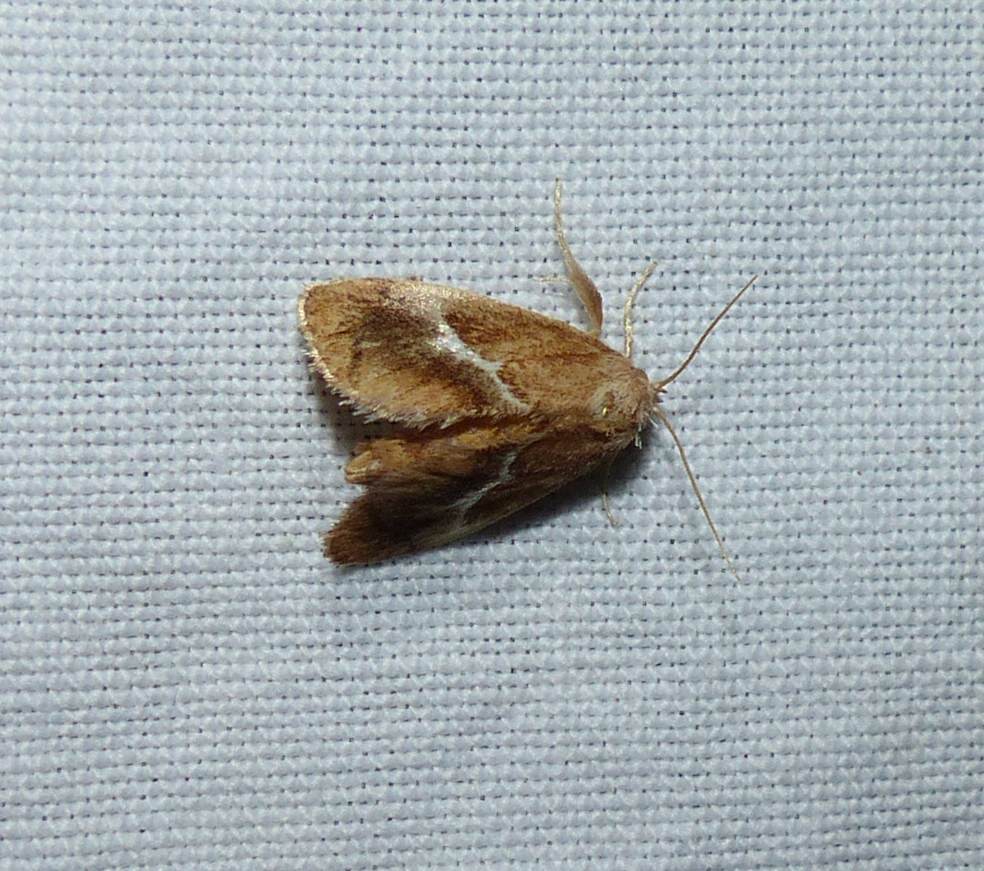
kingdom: Animalia
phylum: Arthropoda
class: Insecta
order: Lepidoptera
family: Limacodidae
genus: Lithacodes
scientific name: Lithacodes fasciola
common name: Yellow-shouldered slug moth
